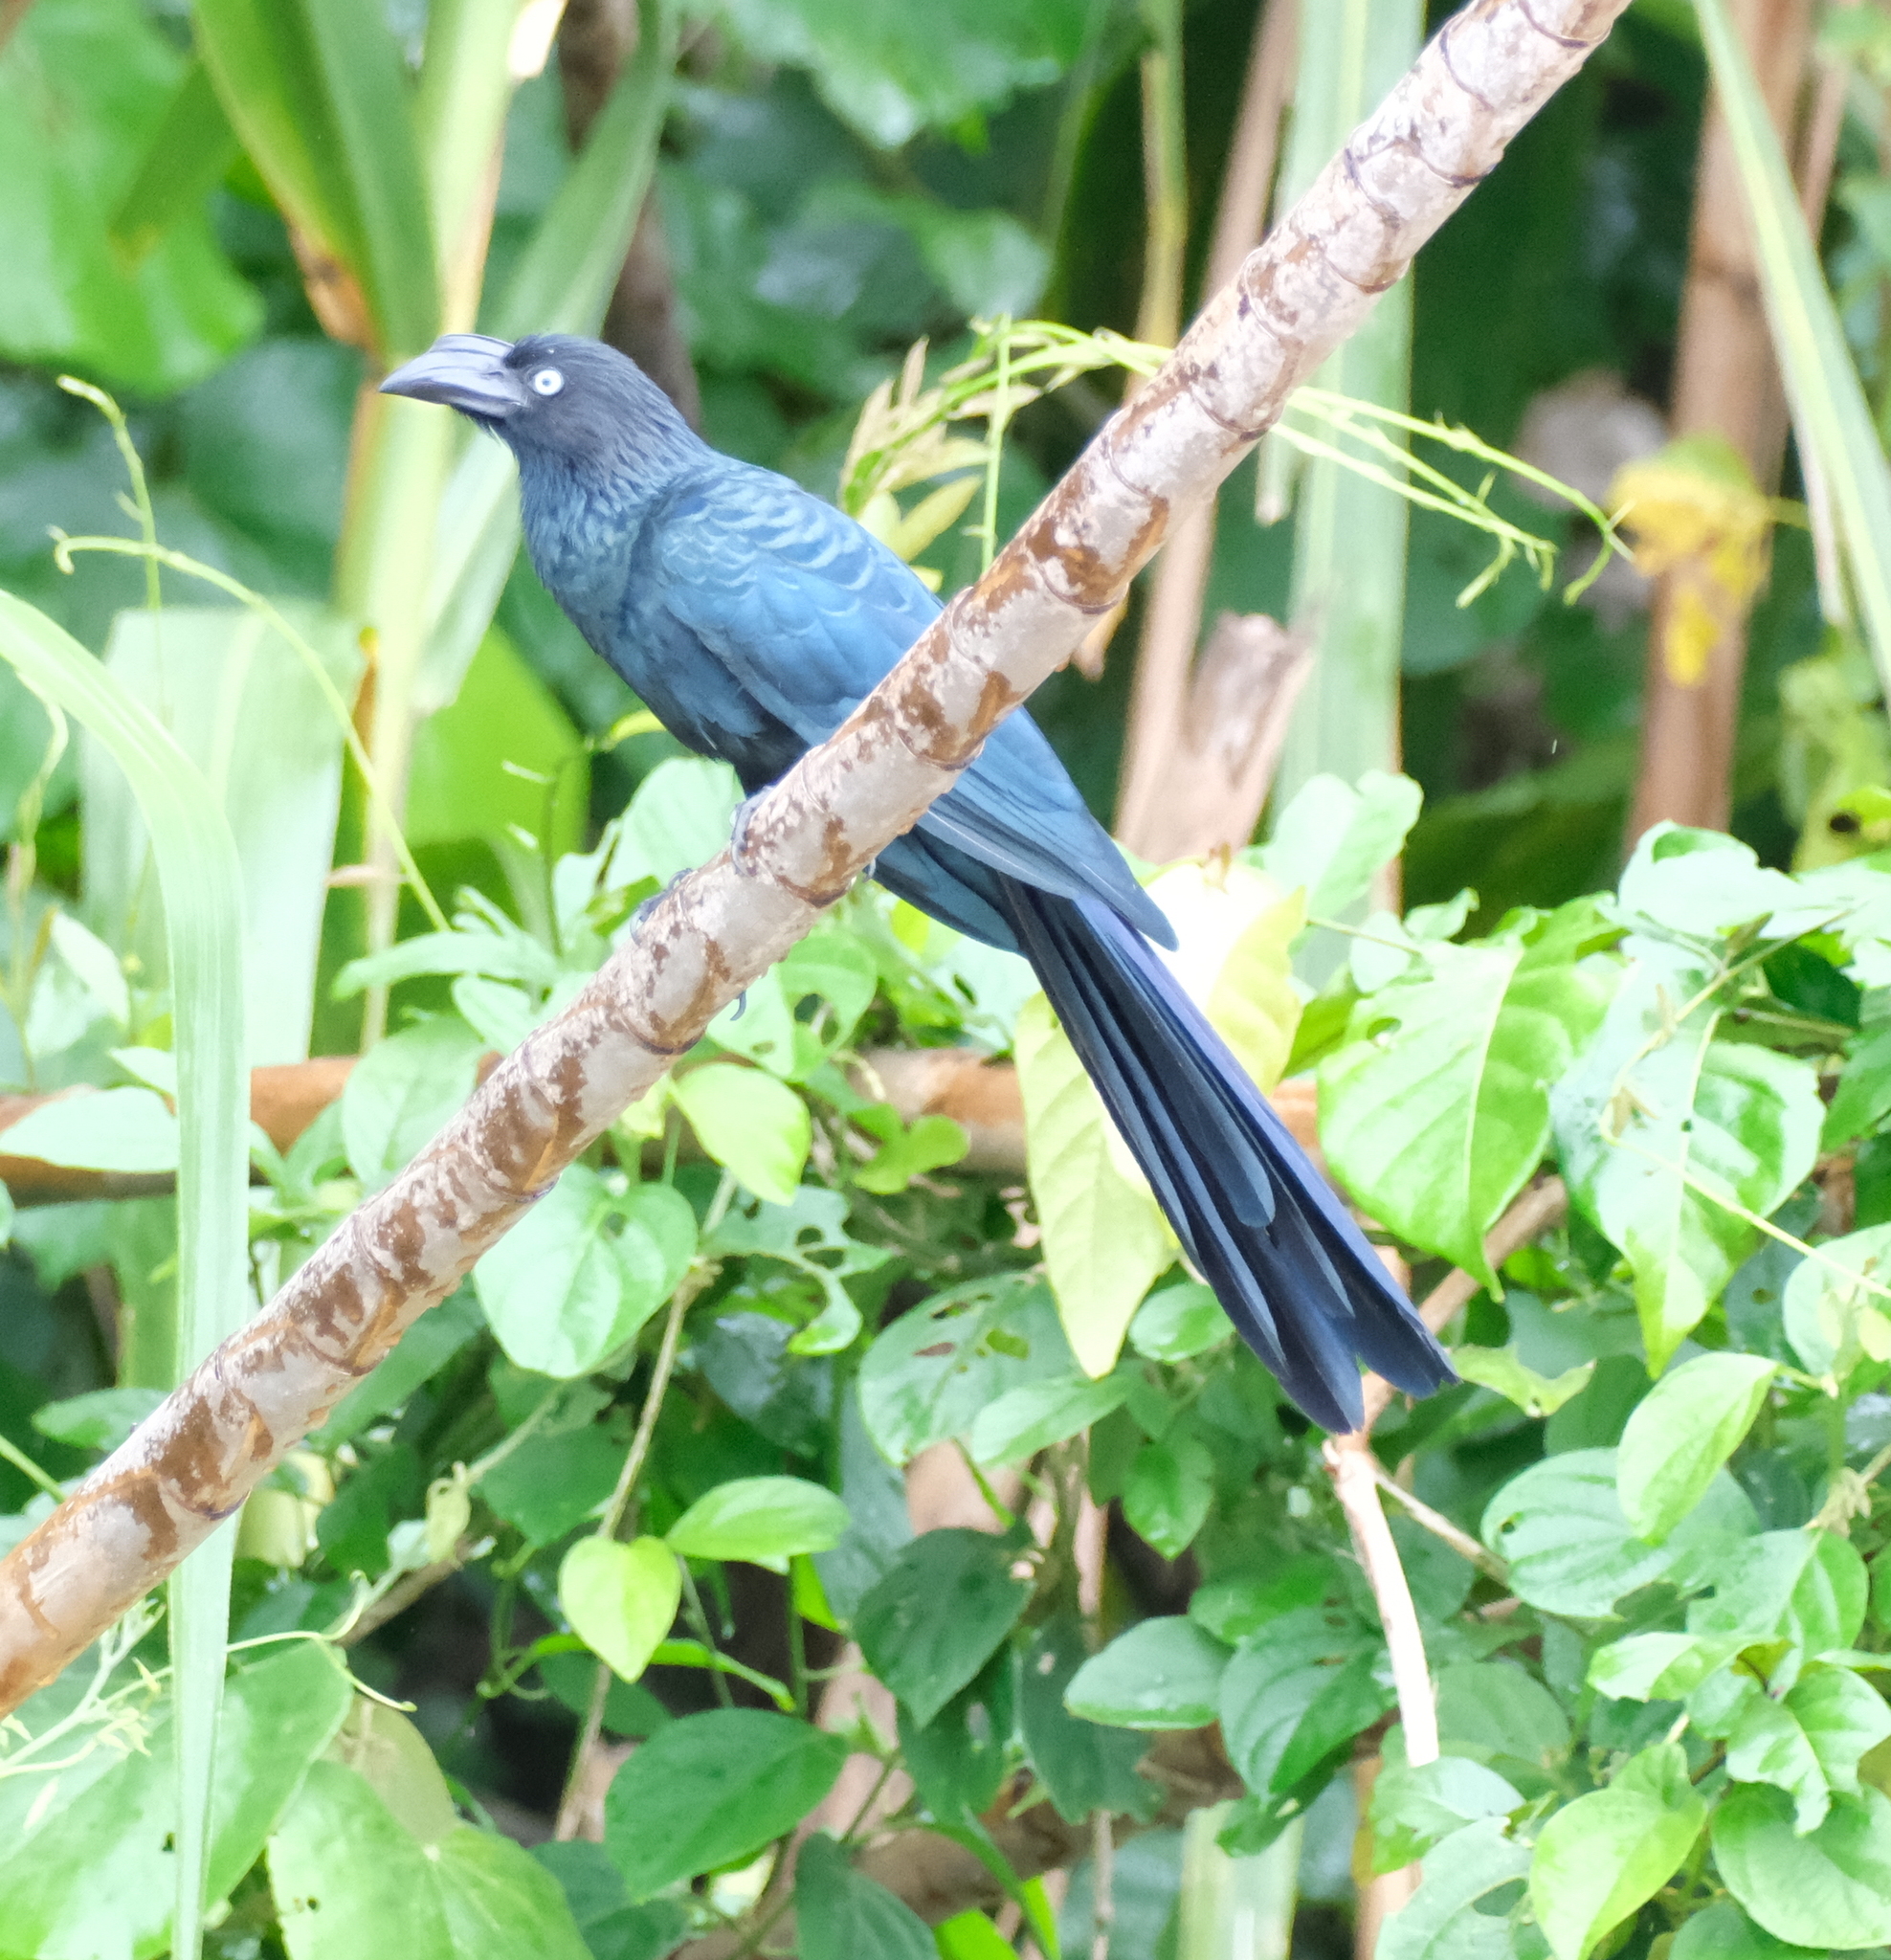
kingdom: Animalia
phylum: Chordata
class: Aves
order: Cuculiformes
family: Cuculidae
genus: Crotophaga
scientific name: Crotophaga major
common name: Greater ani
